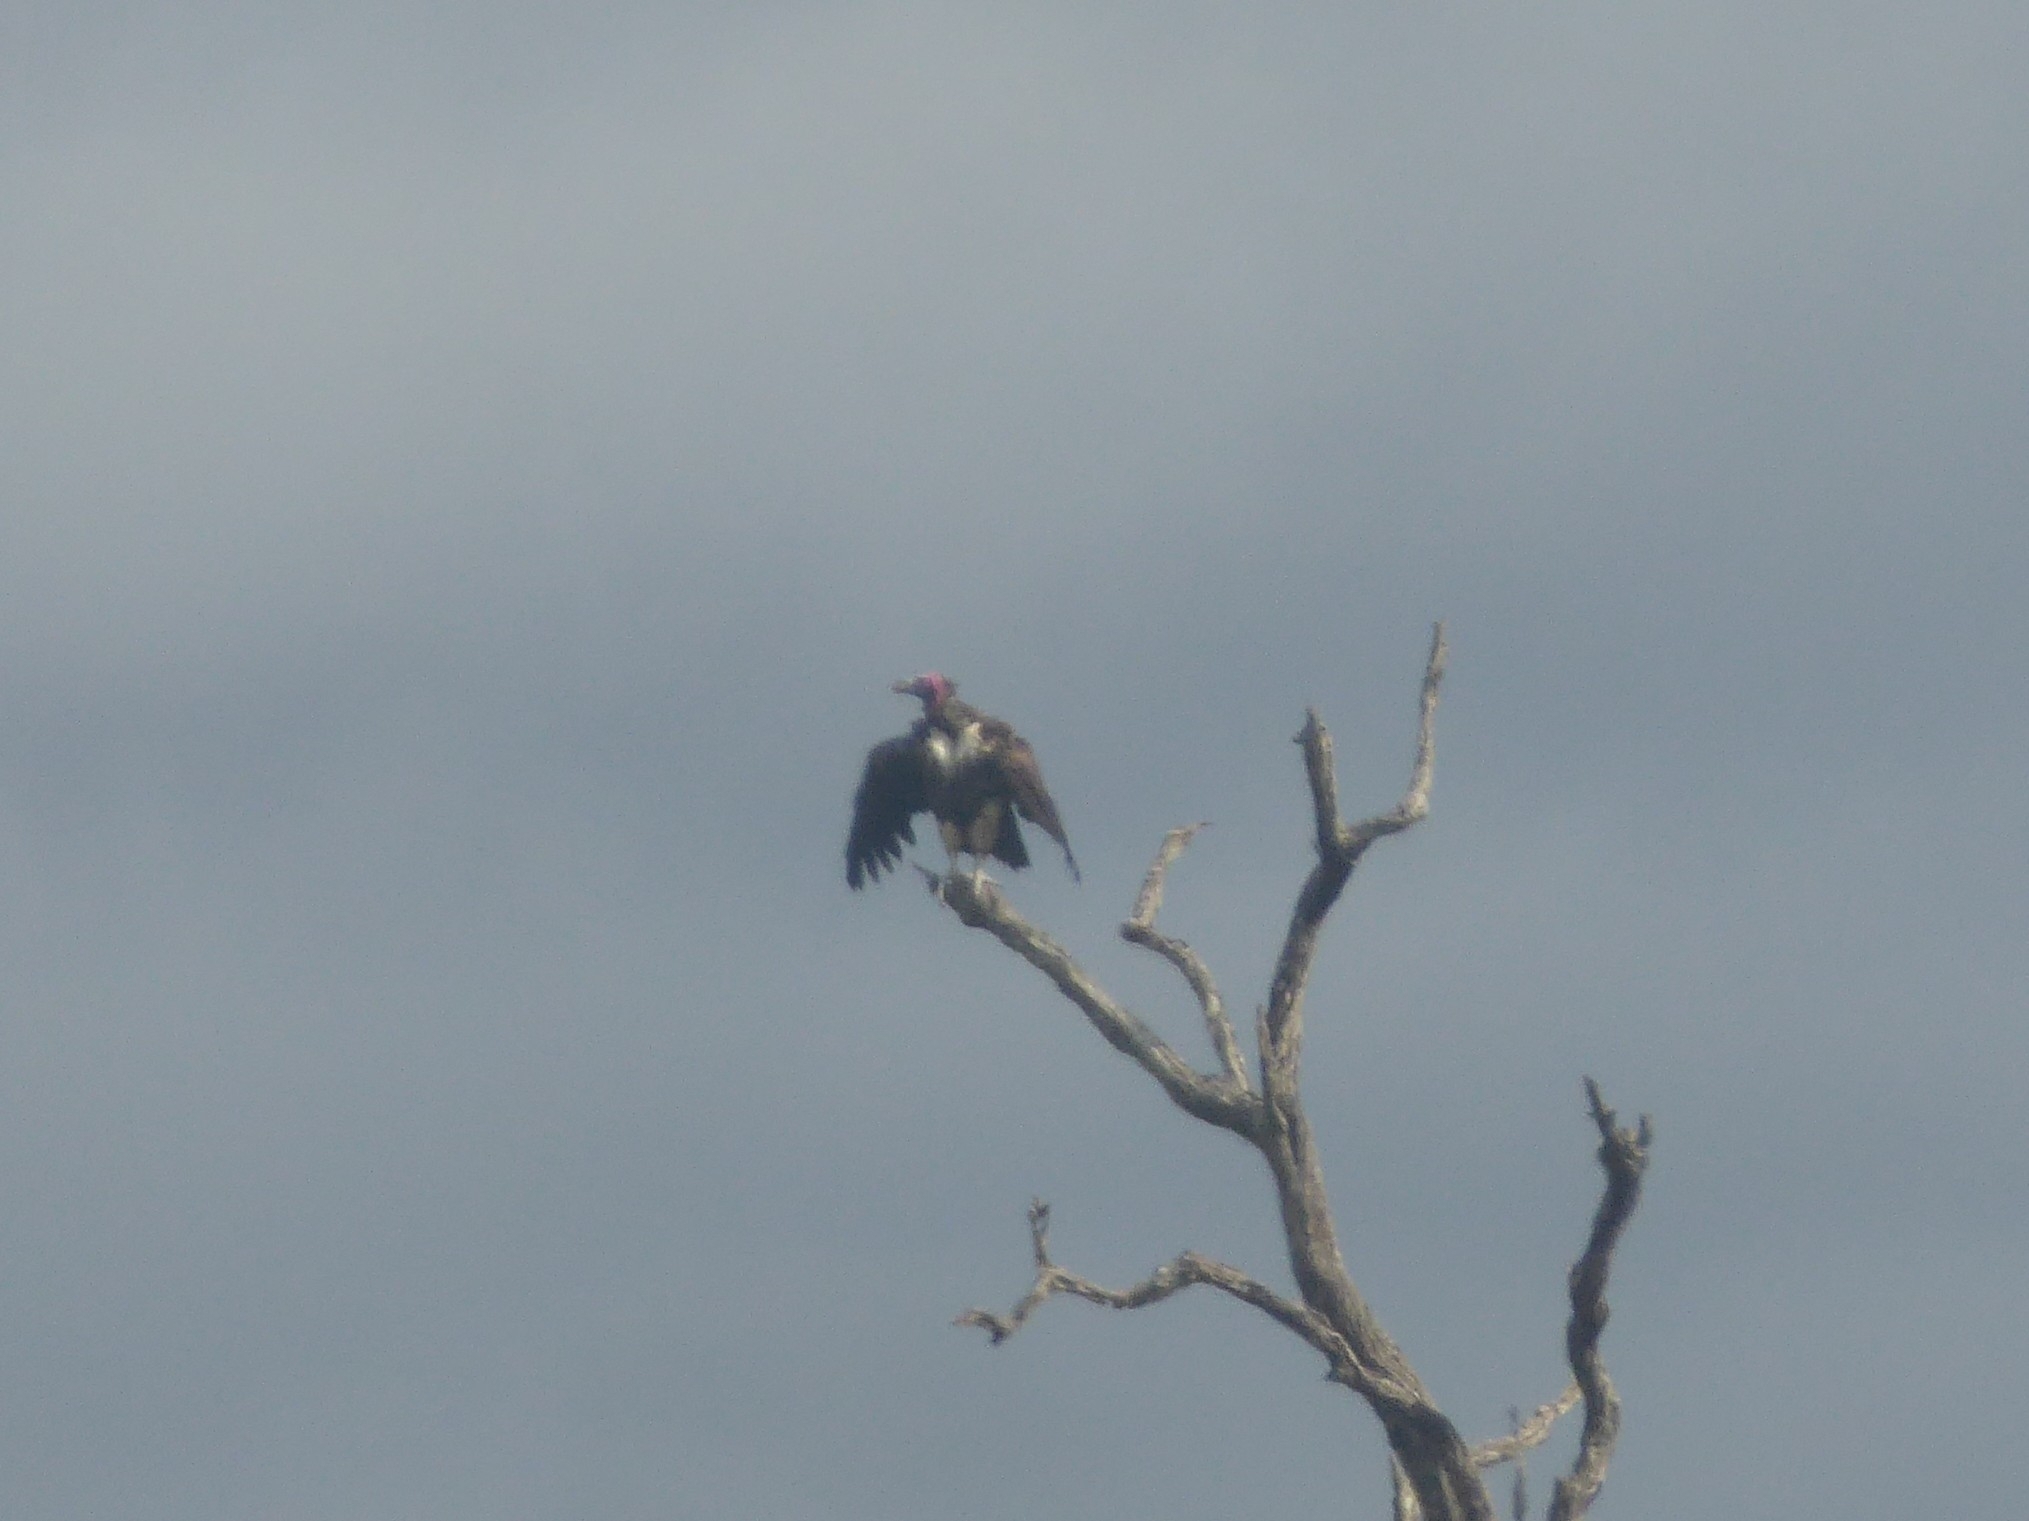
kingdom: Animalia
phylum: Chordata
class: Aves
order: Accipitriformes
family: Accipitridae
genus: Torgos
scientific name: Torgos tracheliotos
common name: Lappet-faced vulture
